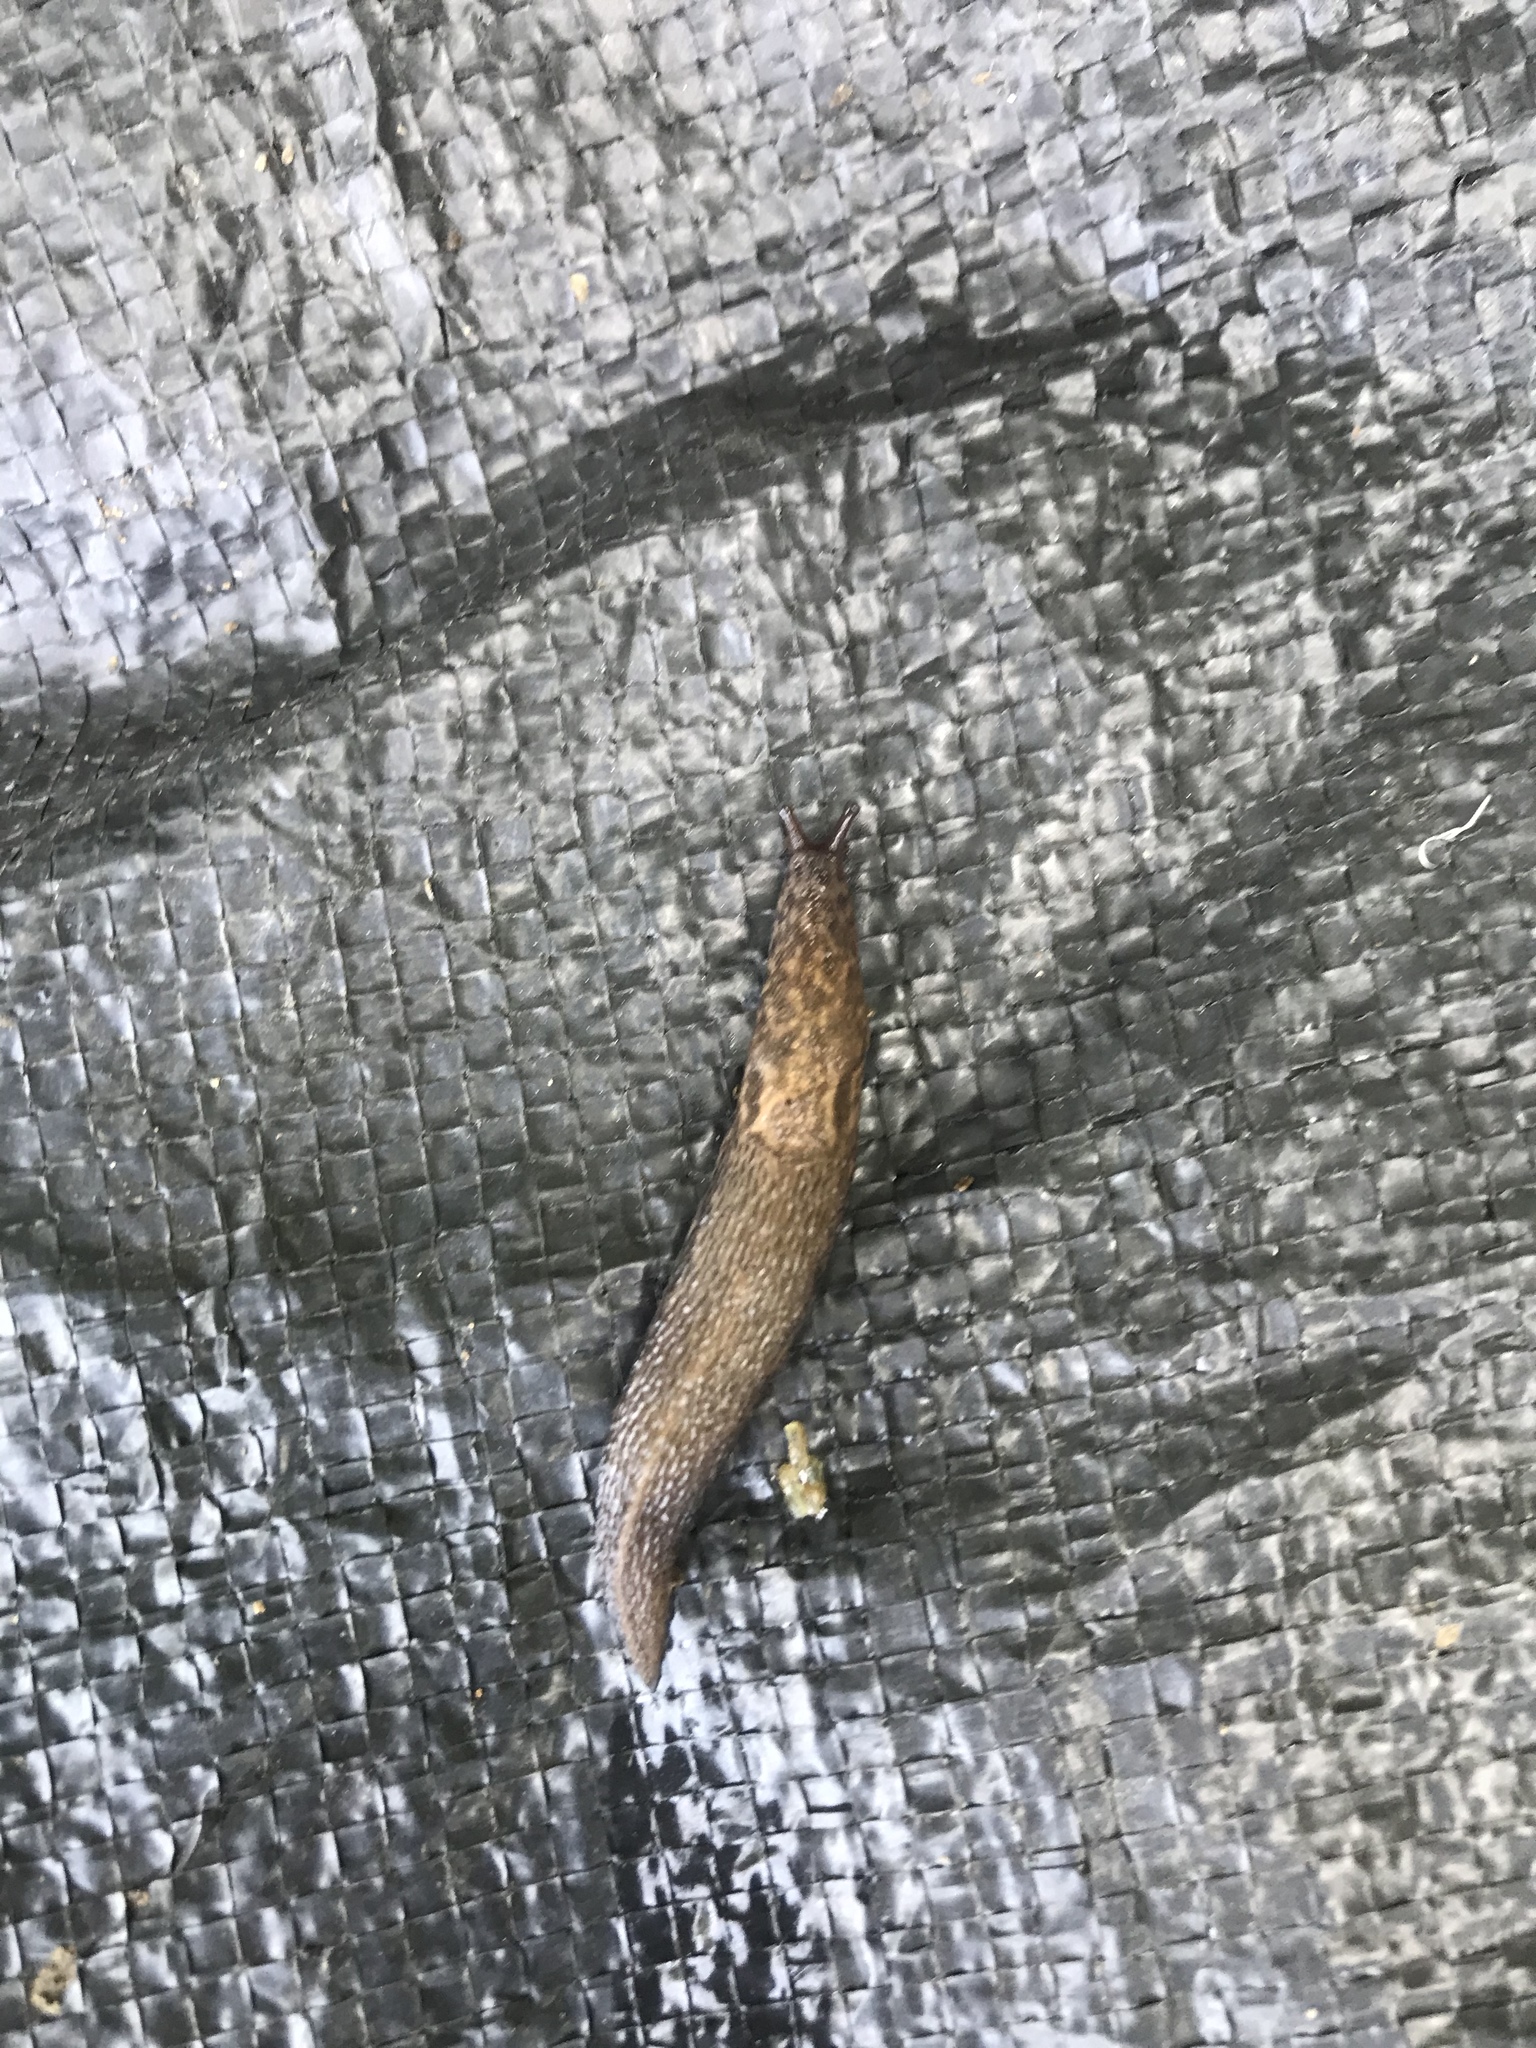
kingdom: Animalia
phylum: Mollusca
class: Gastropoda
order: Stylommatophora
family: Limacidae
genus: Limax
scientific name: Limax maximus
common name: Great grey slug
